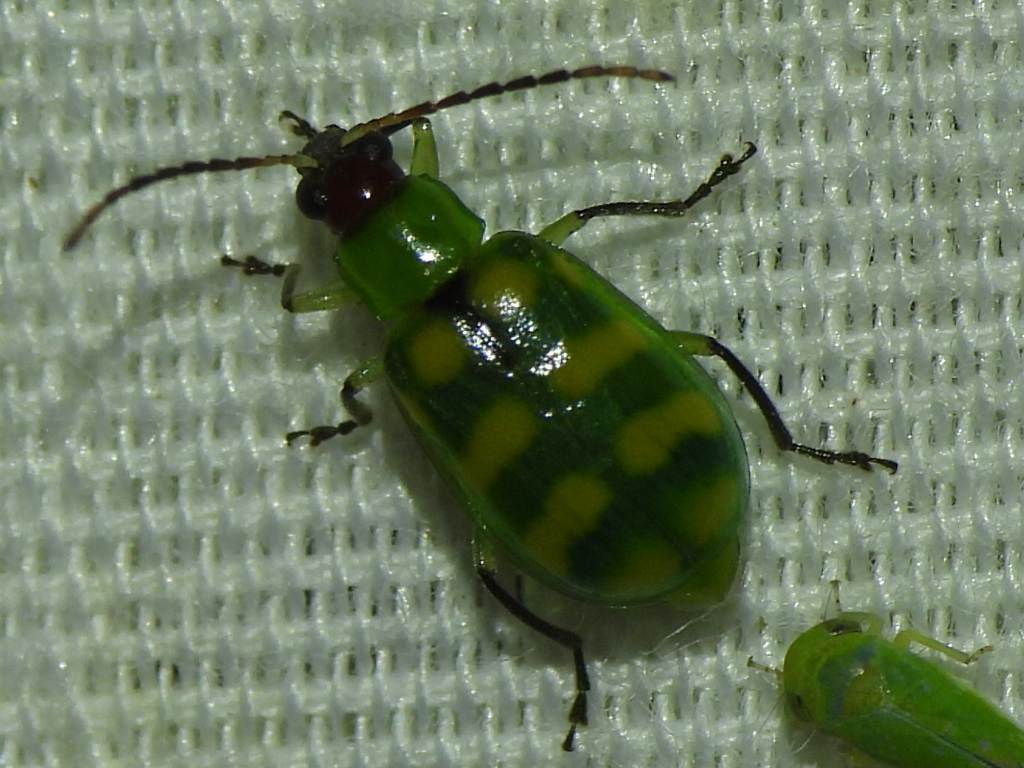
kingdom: Animalia
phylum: Arthropoda
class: Insecta
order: Coleoptera
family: Chrysomelidae
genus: Diabrotica
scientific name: Diabrotica balteata
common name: Leaf beetle
